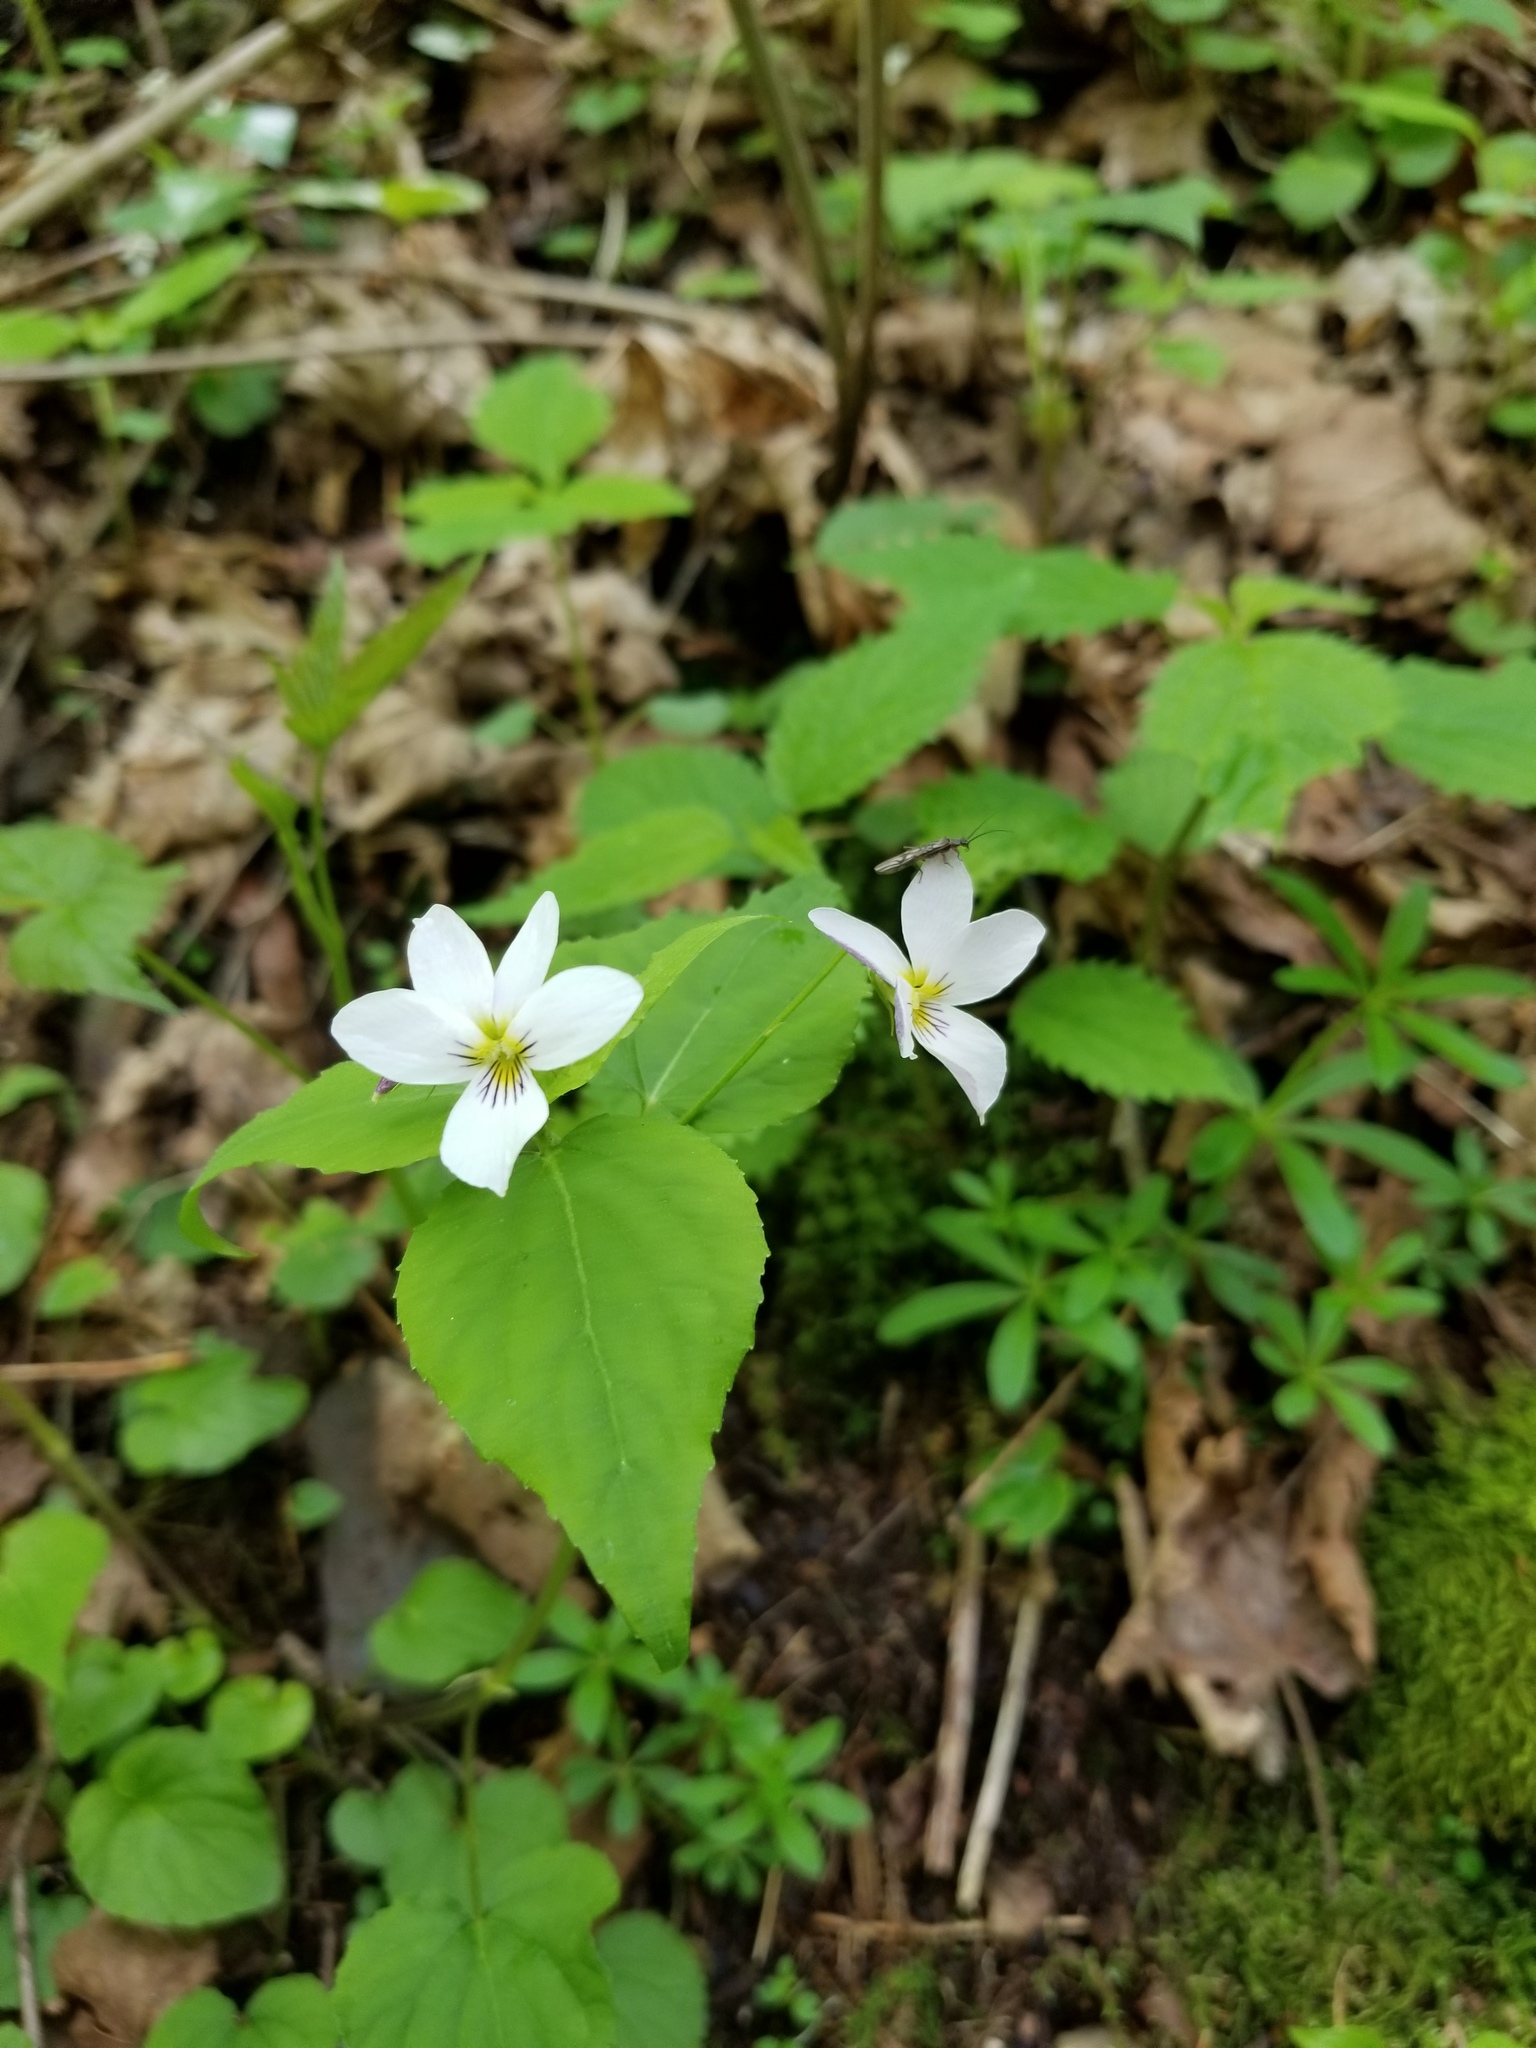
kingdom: Plantae
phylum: Tracheophyta
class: Magnoliopsida
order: Malpighiales
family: Violaceae
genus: Viola
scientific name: Viola canadensis
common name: Canada violet
